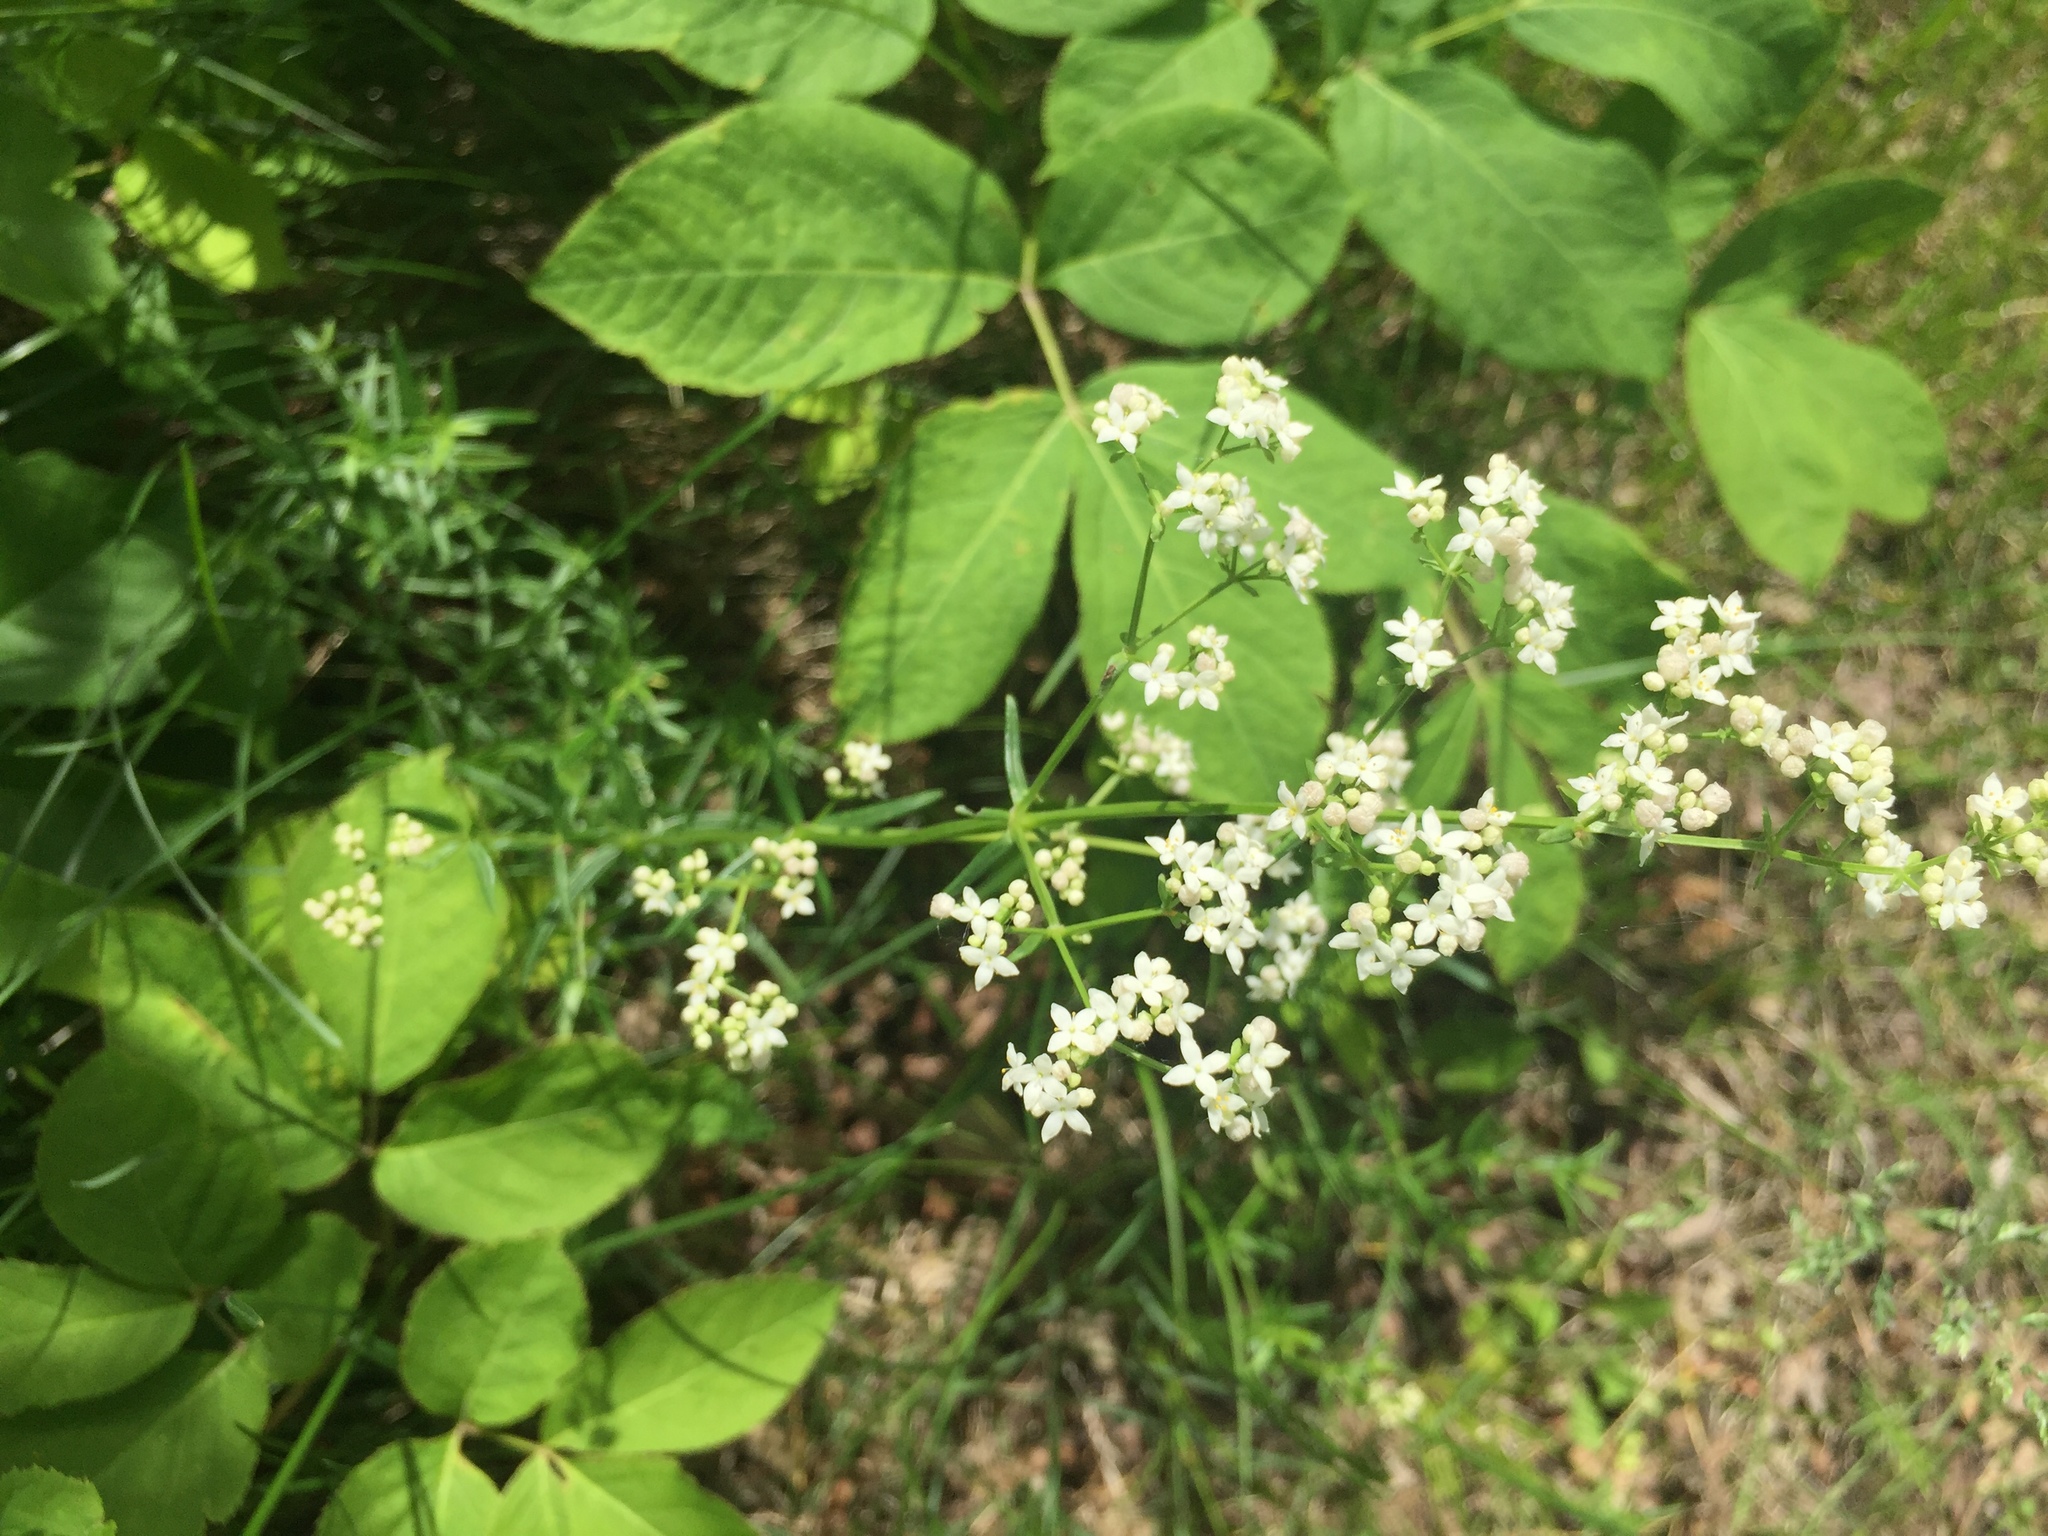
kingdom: Plantae
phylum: Tracheophyta
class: Magnoliopsida
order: Gentianales
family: Rubiaceae
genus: Galium
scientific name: Galium boreale
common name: Northern bedstraw
